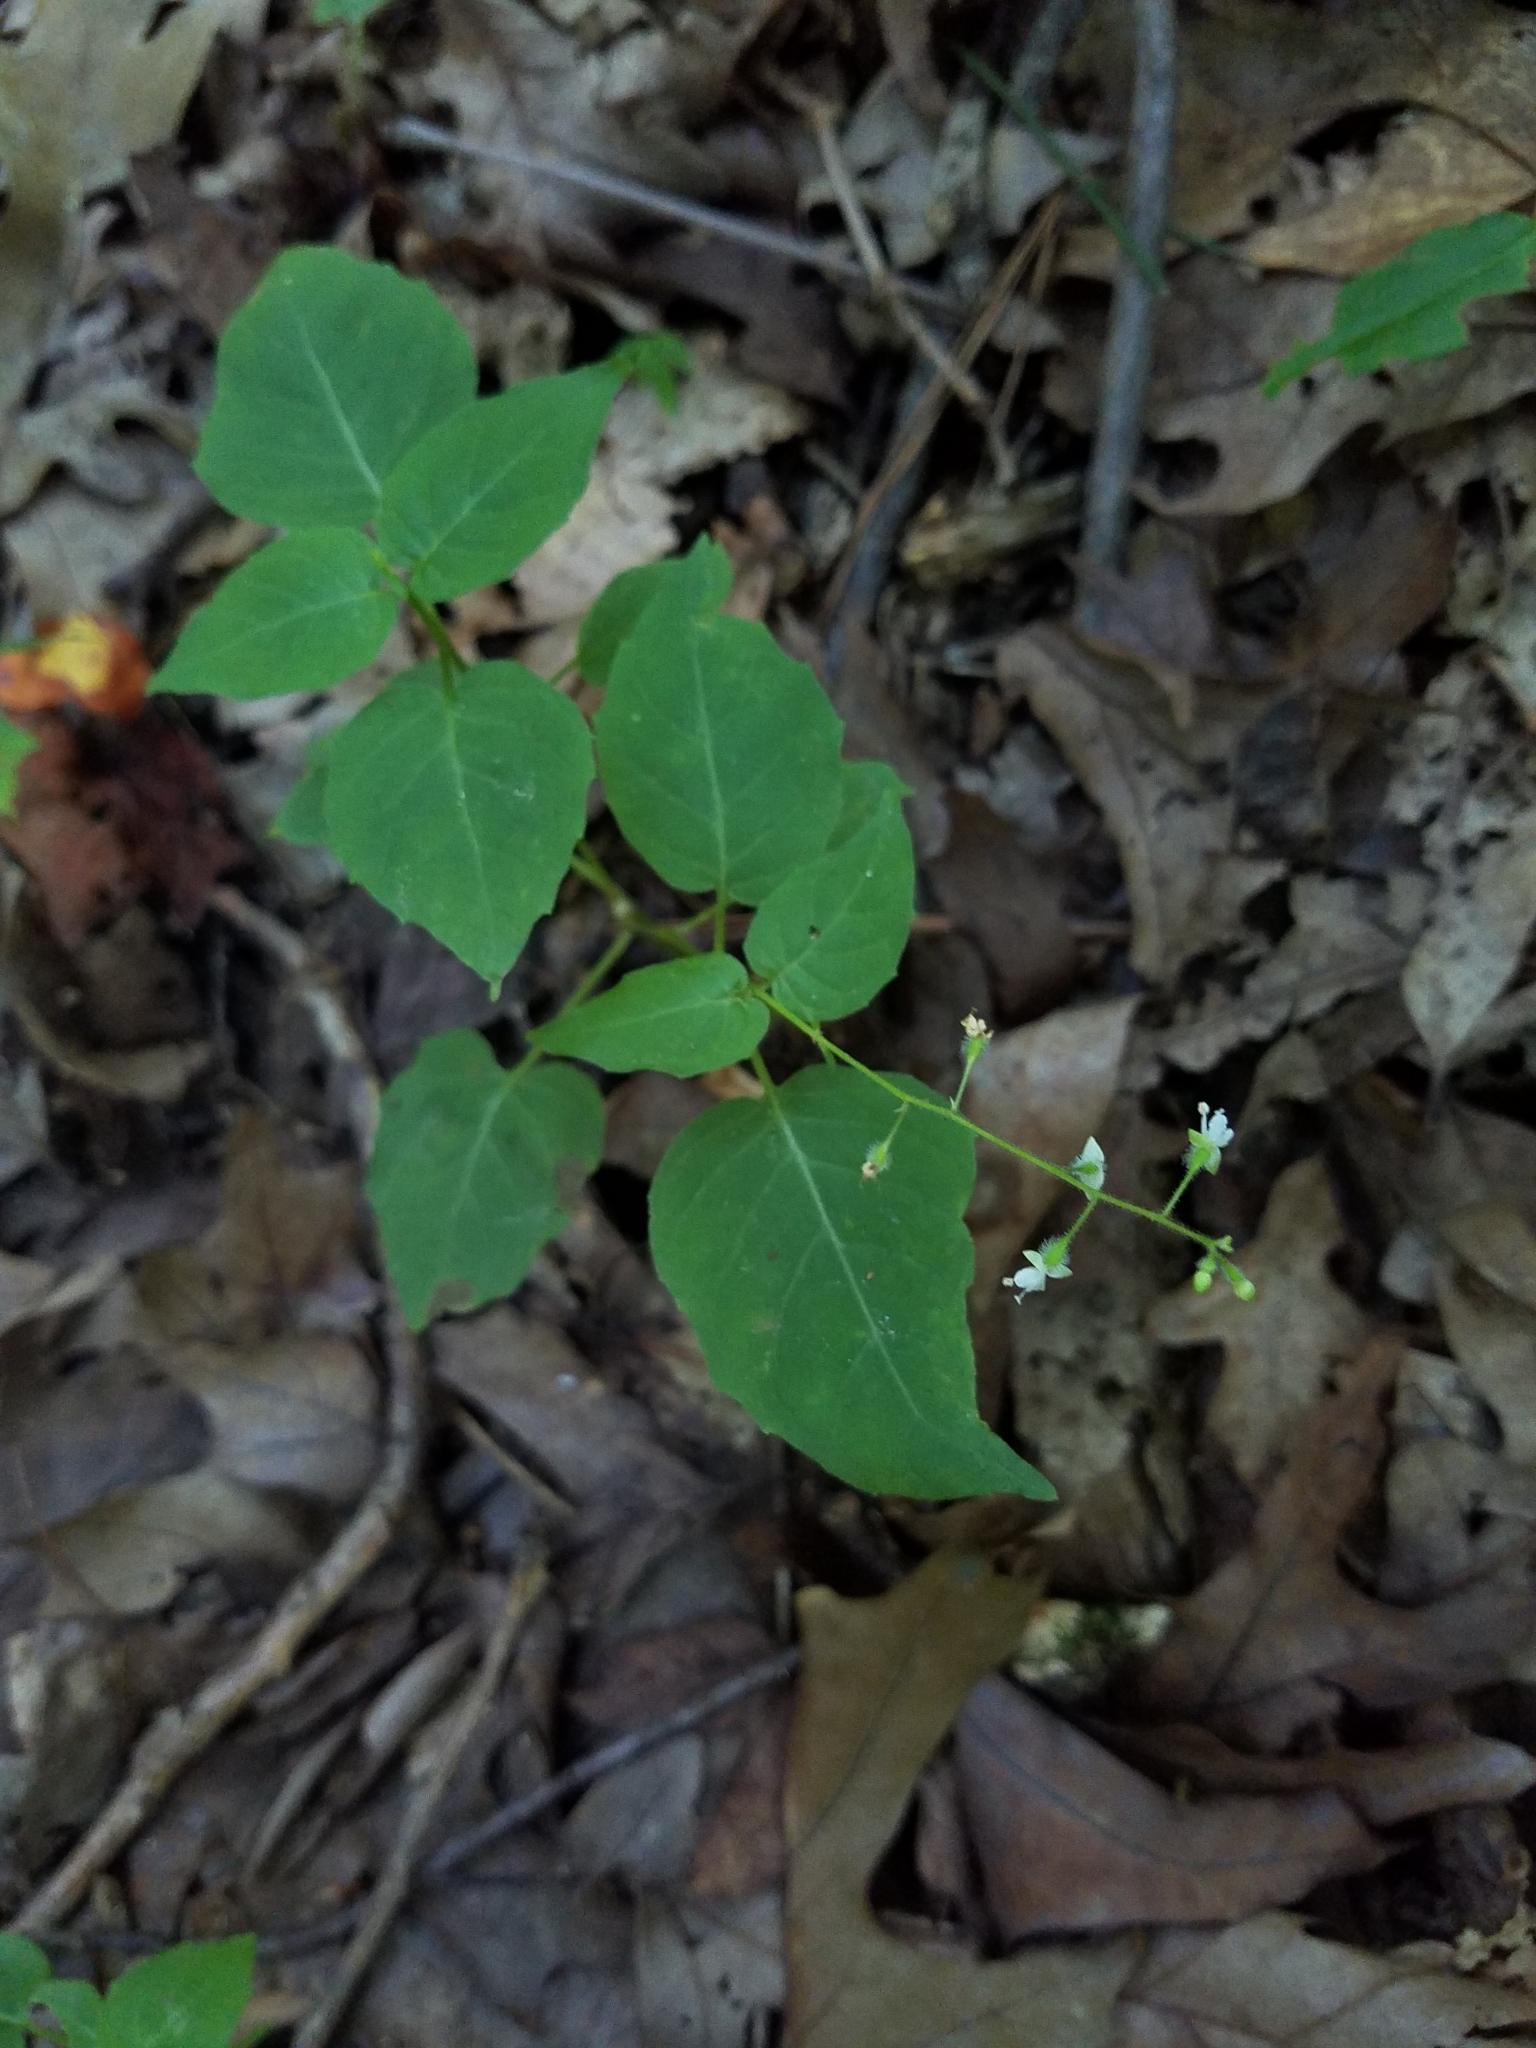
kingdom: Plantae
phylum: Tracheophyta
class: Magnoliopsida
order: Myrtales
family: Onagraceae
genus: Circaea
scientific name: Circaea canadensis
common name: Broad-leaved enchanter's nightshade
